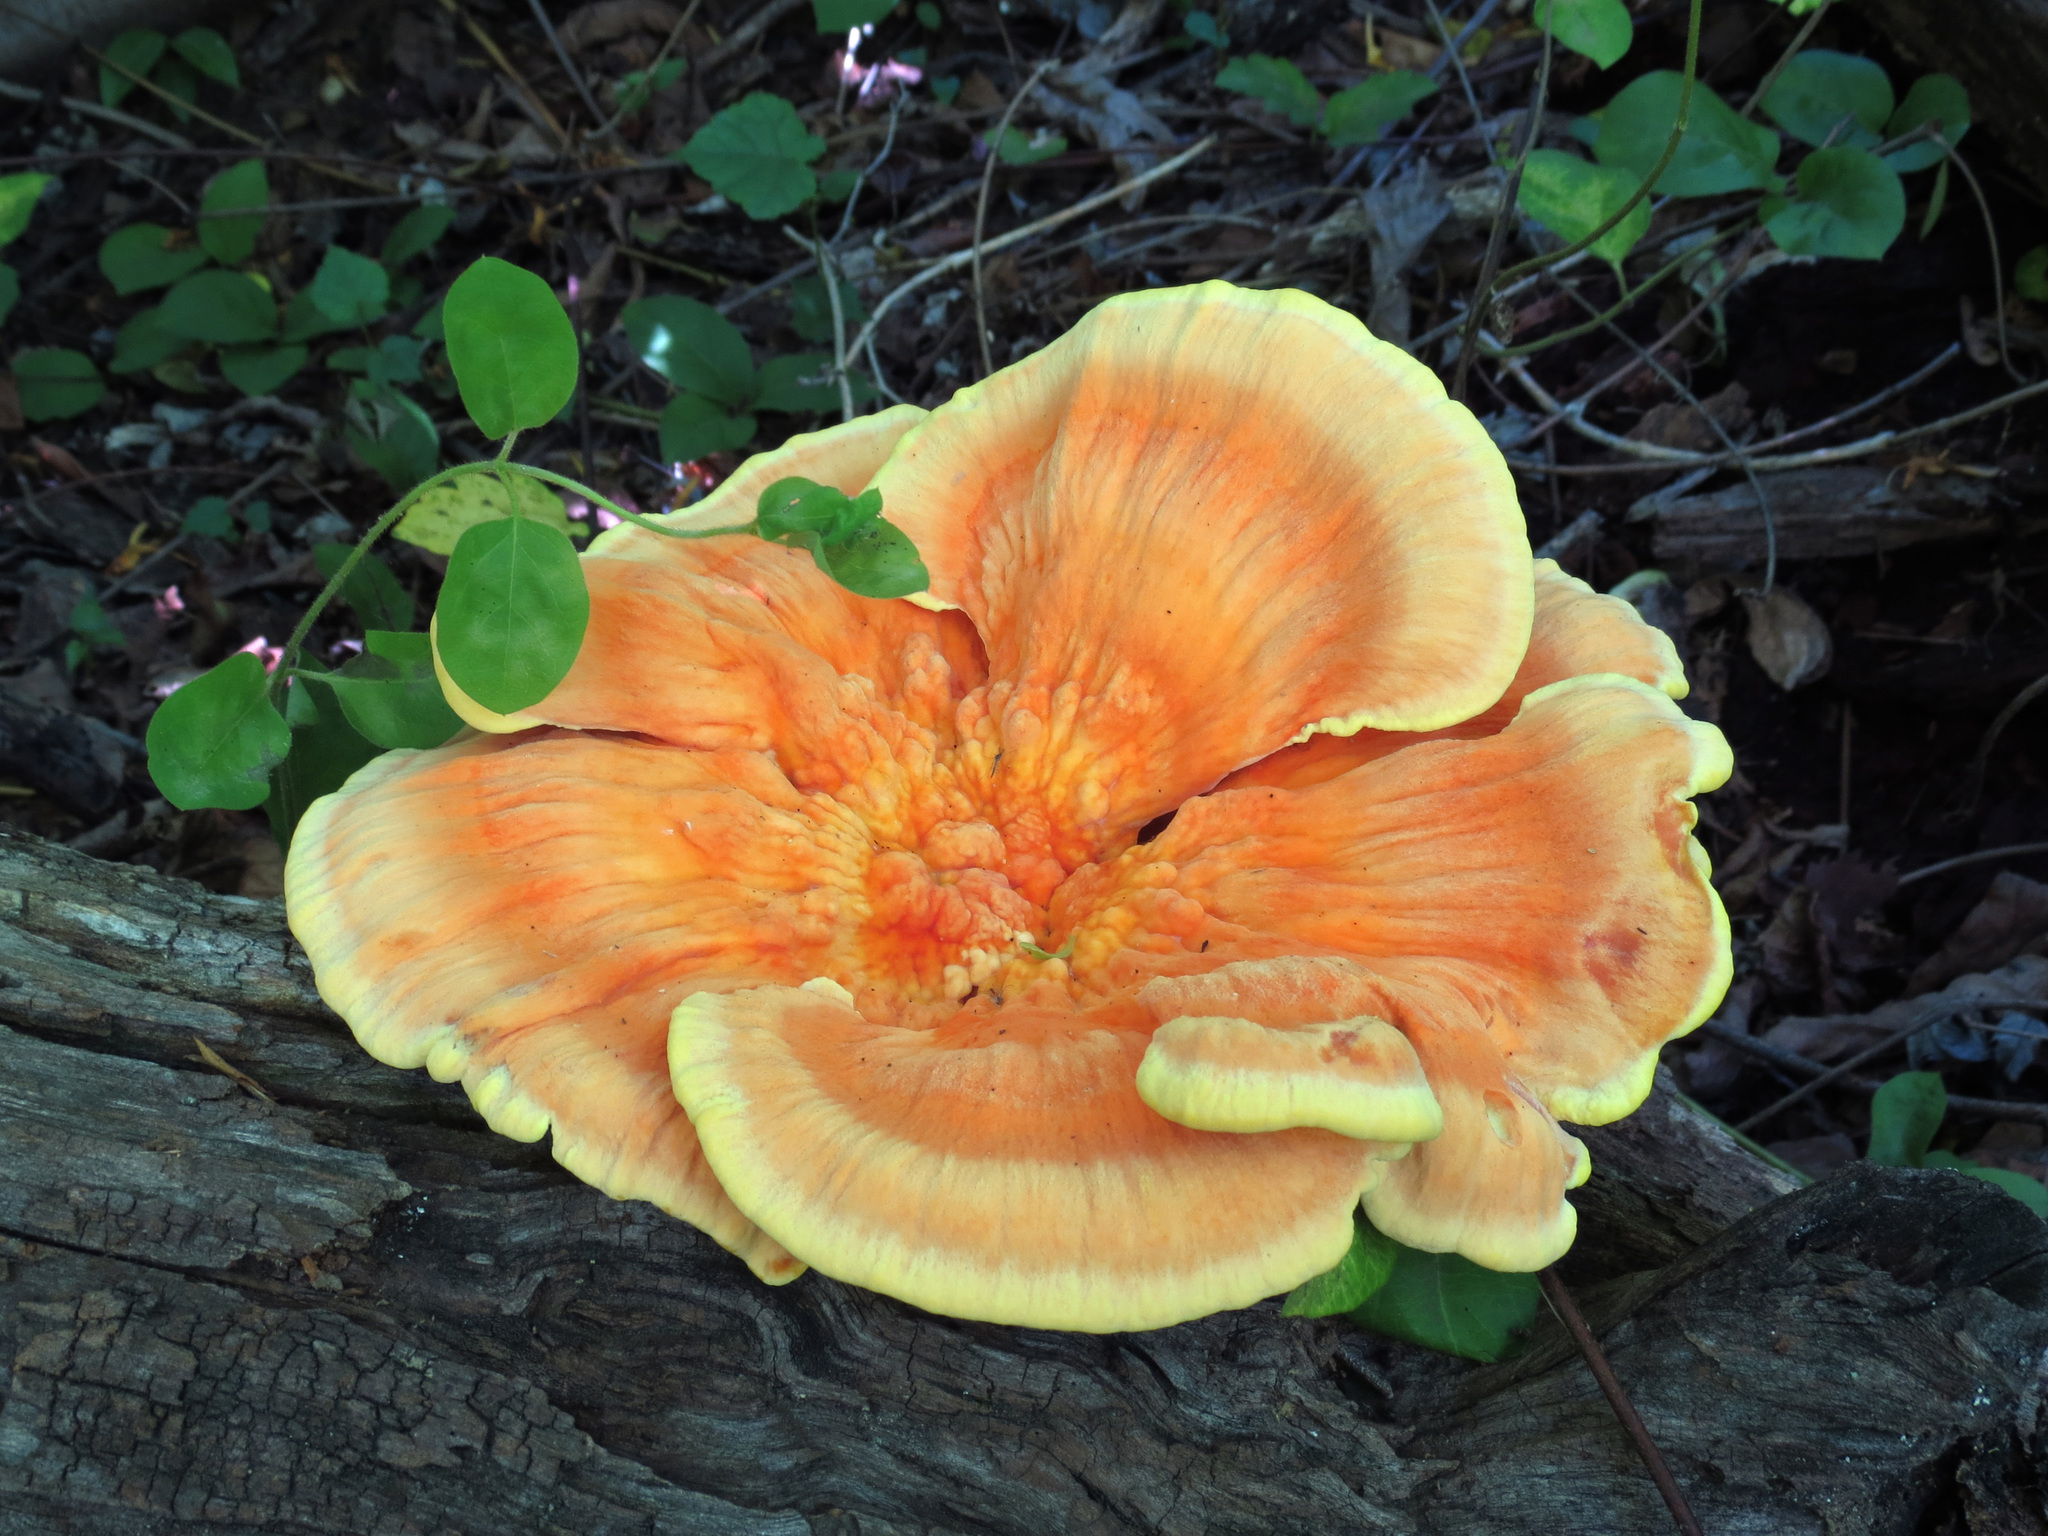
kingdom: Fungi
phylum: Basidiomycota
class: Agaricomycetes
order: Polyporales
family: Laetiporaceae
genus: Laetiporus
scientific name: Laetiporus sulphureus
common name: Chicken of the woods
